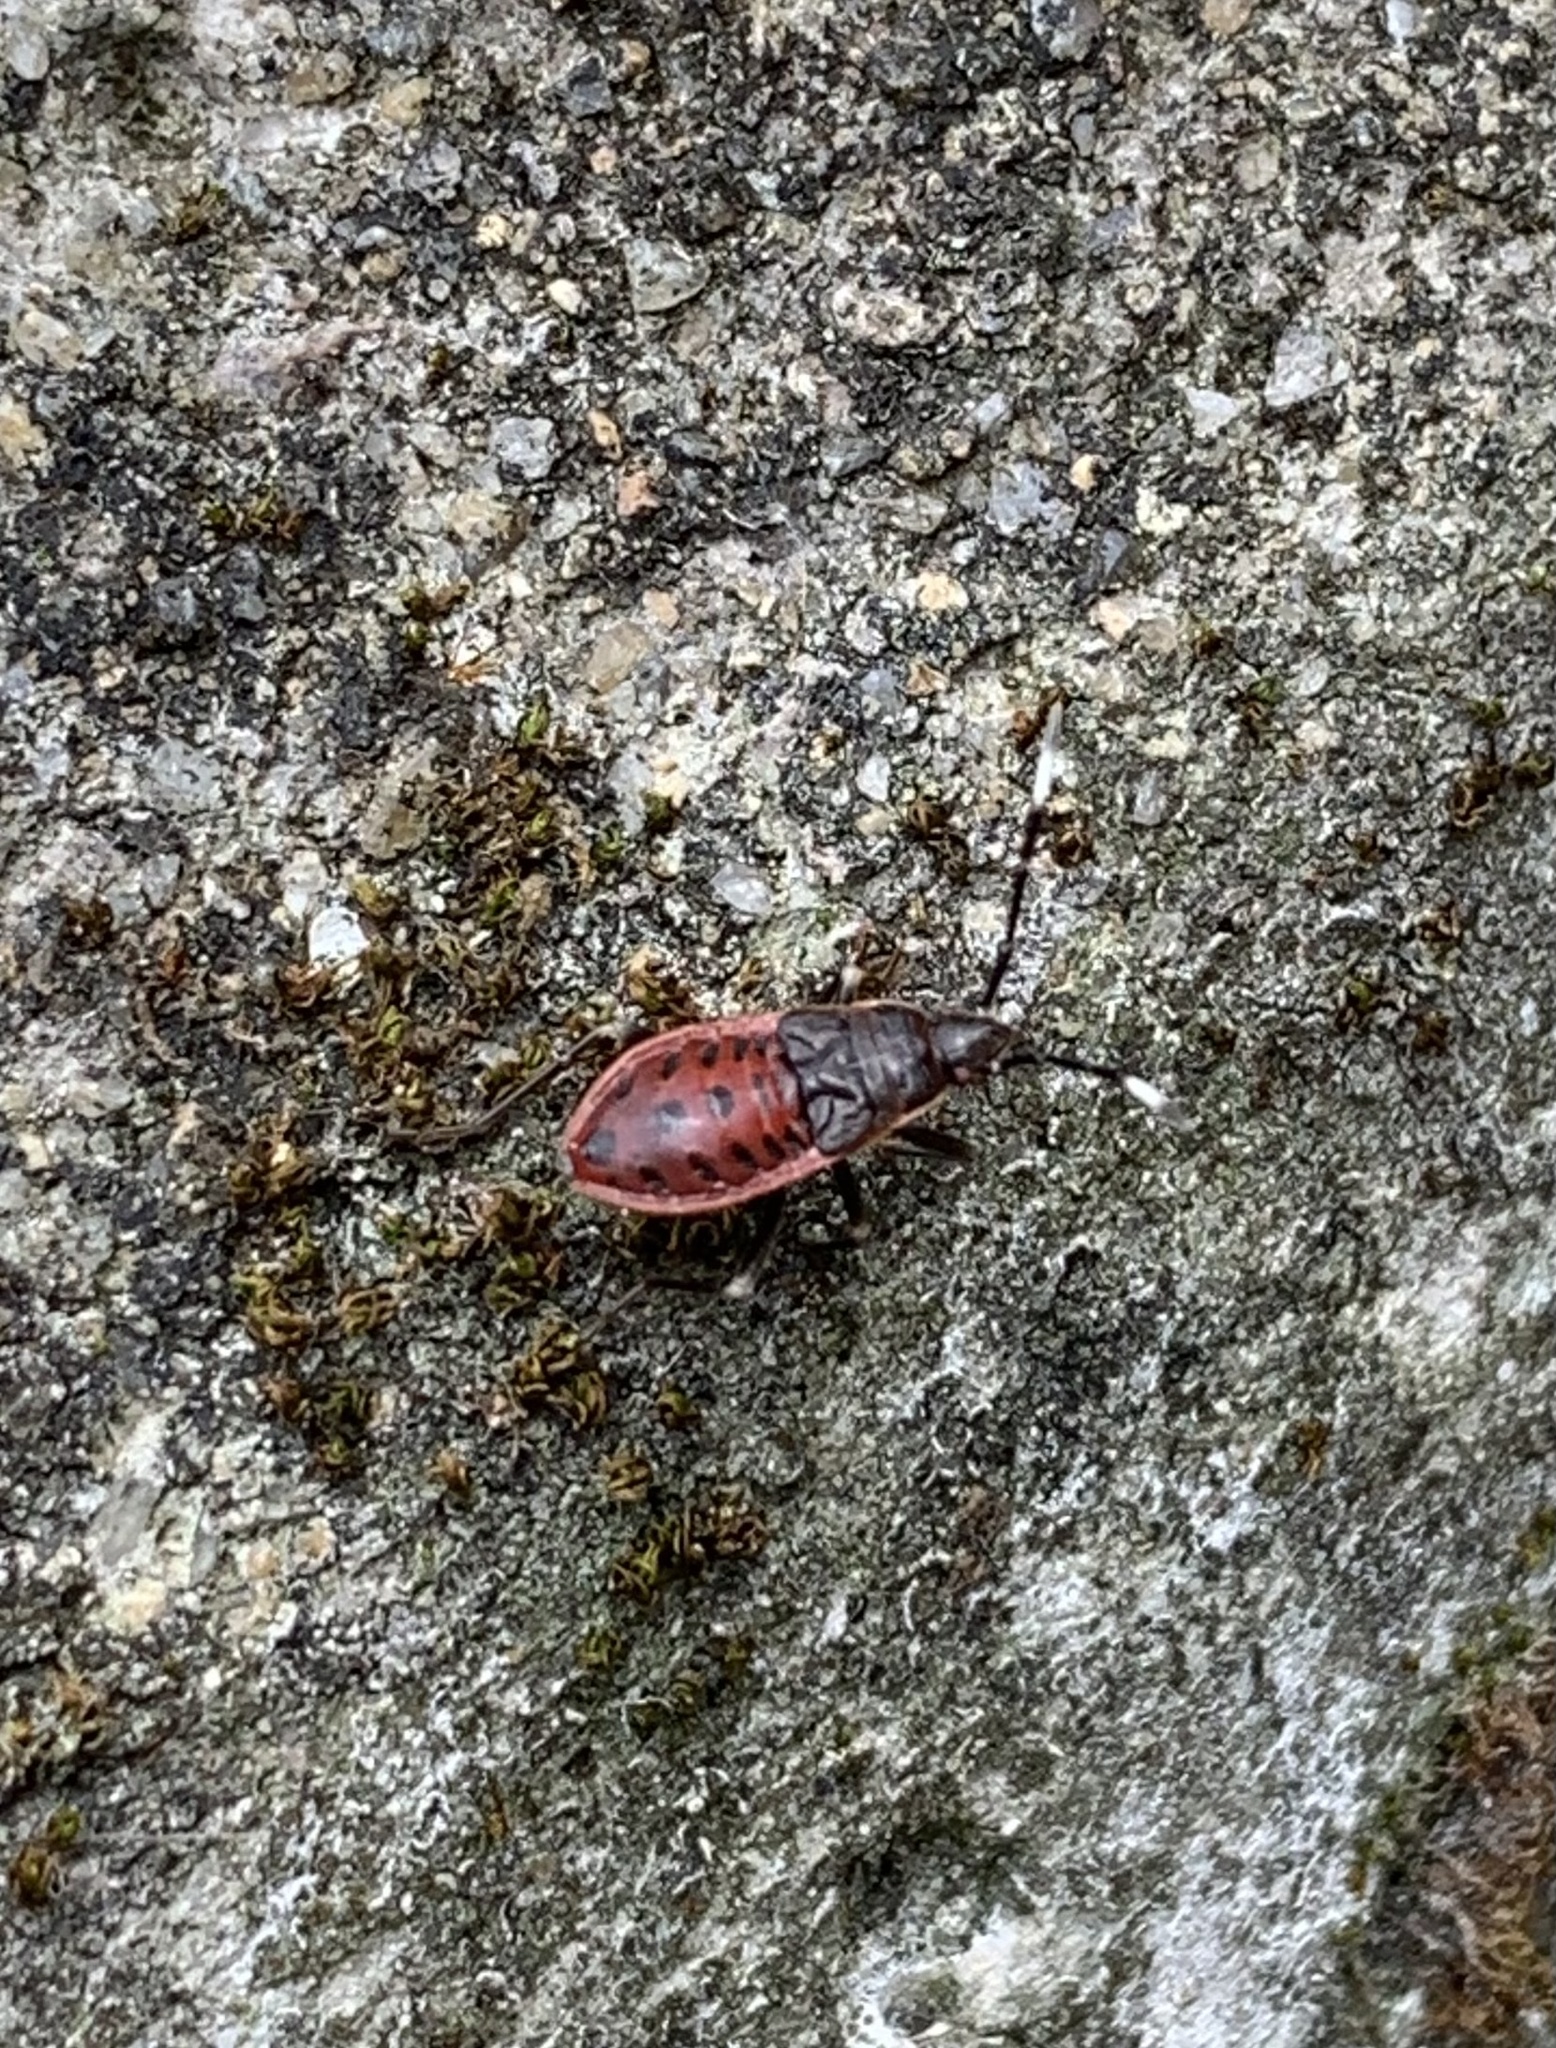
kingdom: Animalia
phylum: Arthropoda
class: Insecta
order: Hemiptera
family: Largidae
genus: Physopelta
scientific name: Physopelta gutta
